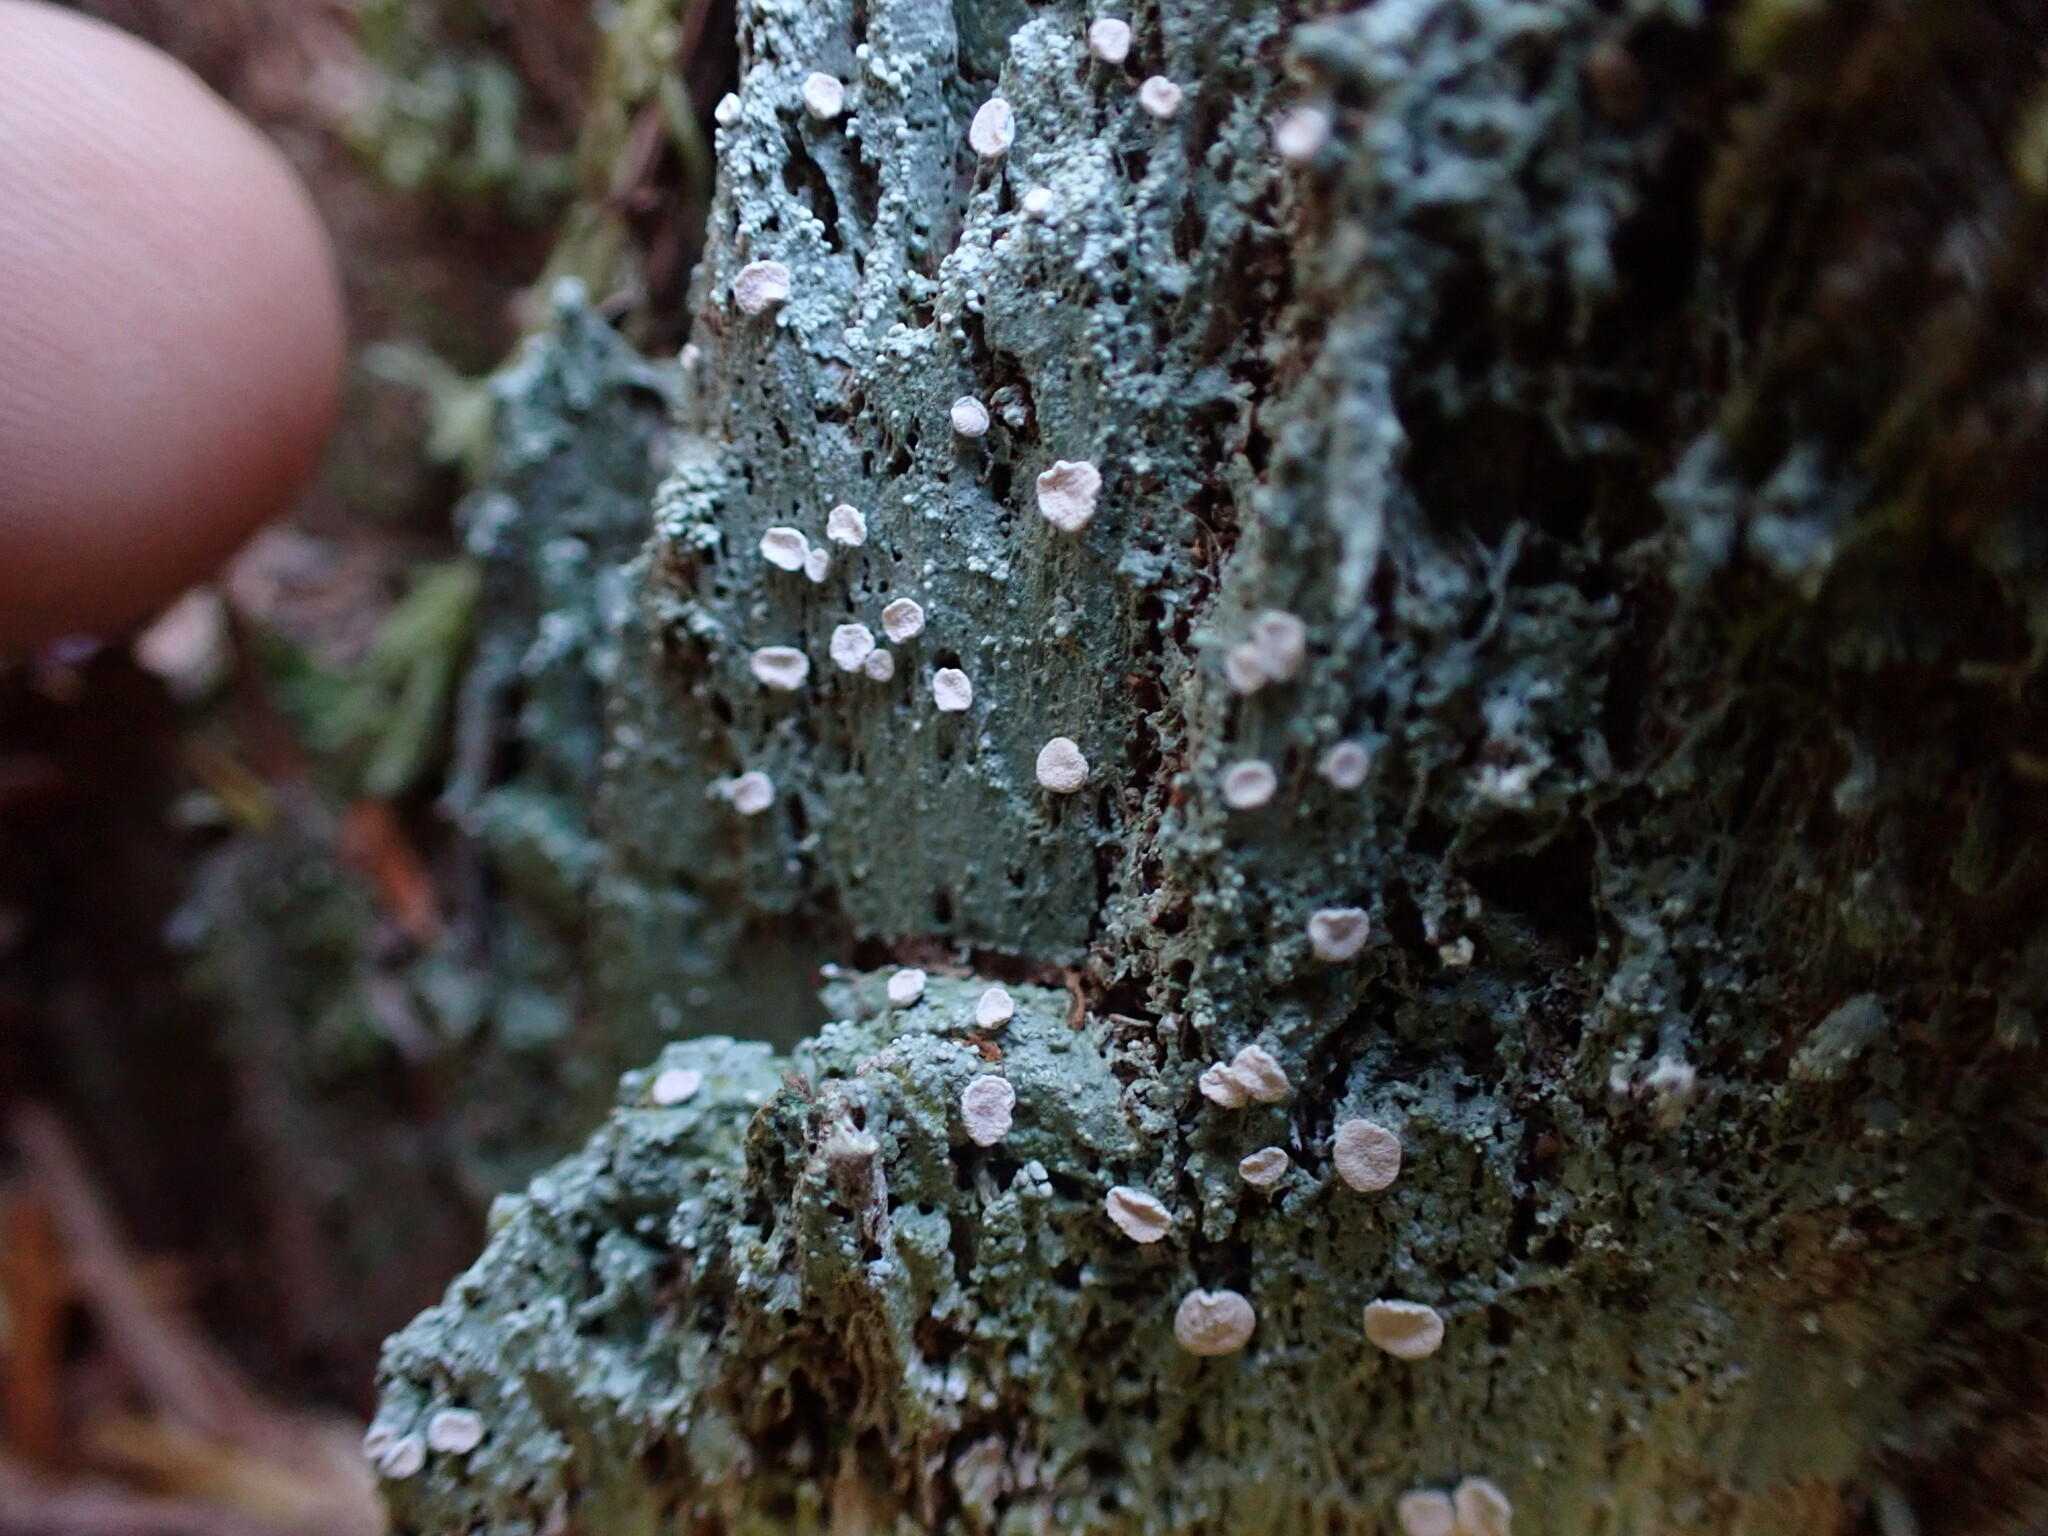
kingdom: Fungi
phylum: Ascomycota
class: Lecanoromycetes
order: Pertusariales
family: Icmadophilaceae
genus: Icmadophila
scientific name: Icmadophila ericetorum
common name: Candy lichen
